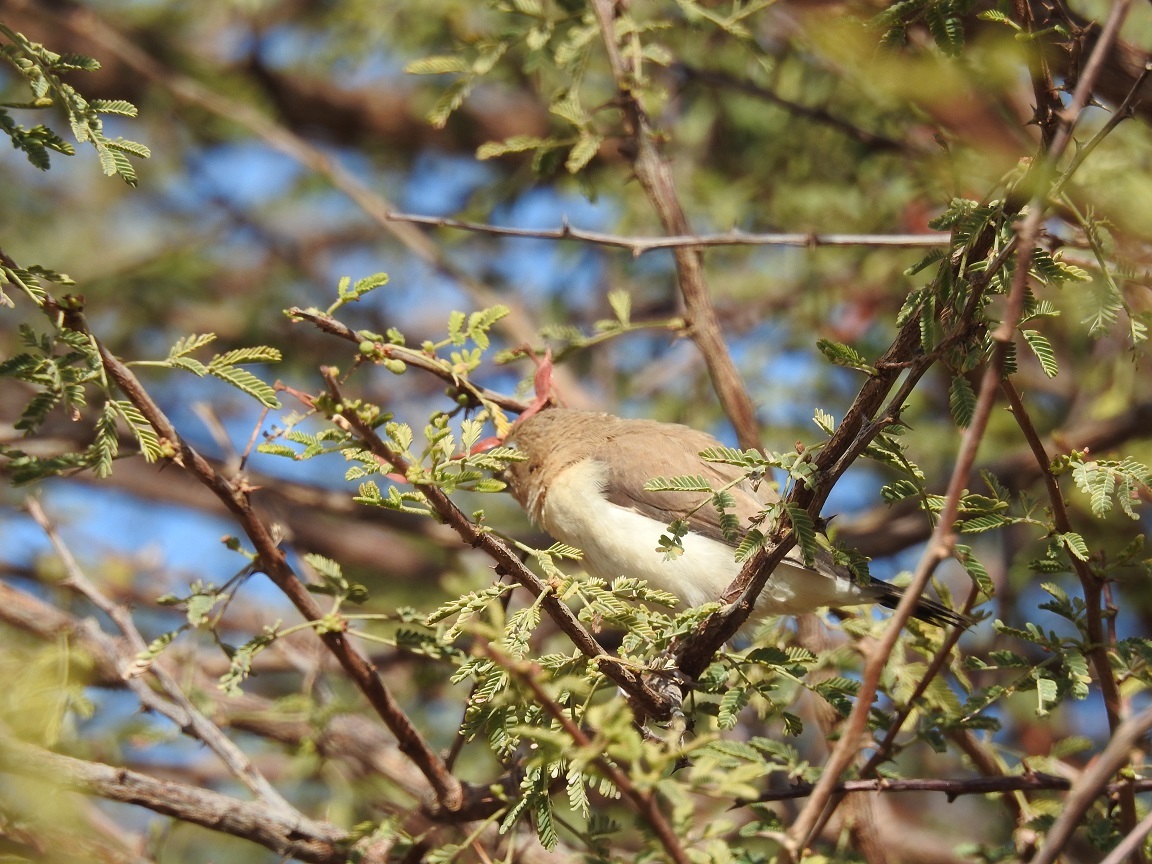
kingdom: Animalia
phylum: Chordata
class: Aves
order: Passeriformes
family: Estrildidae
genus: Euodice
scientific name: Euodice cantans
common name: African silverbill
